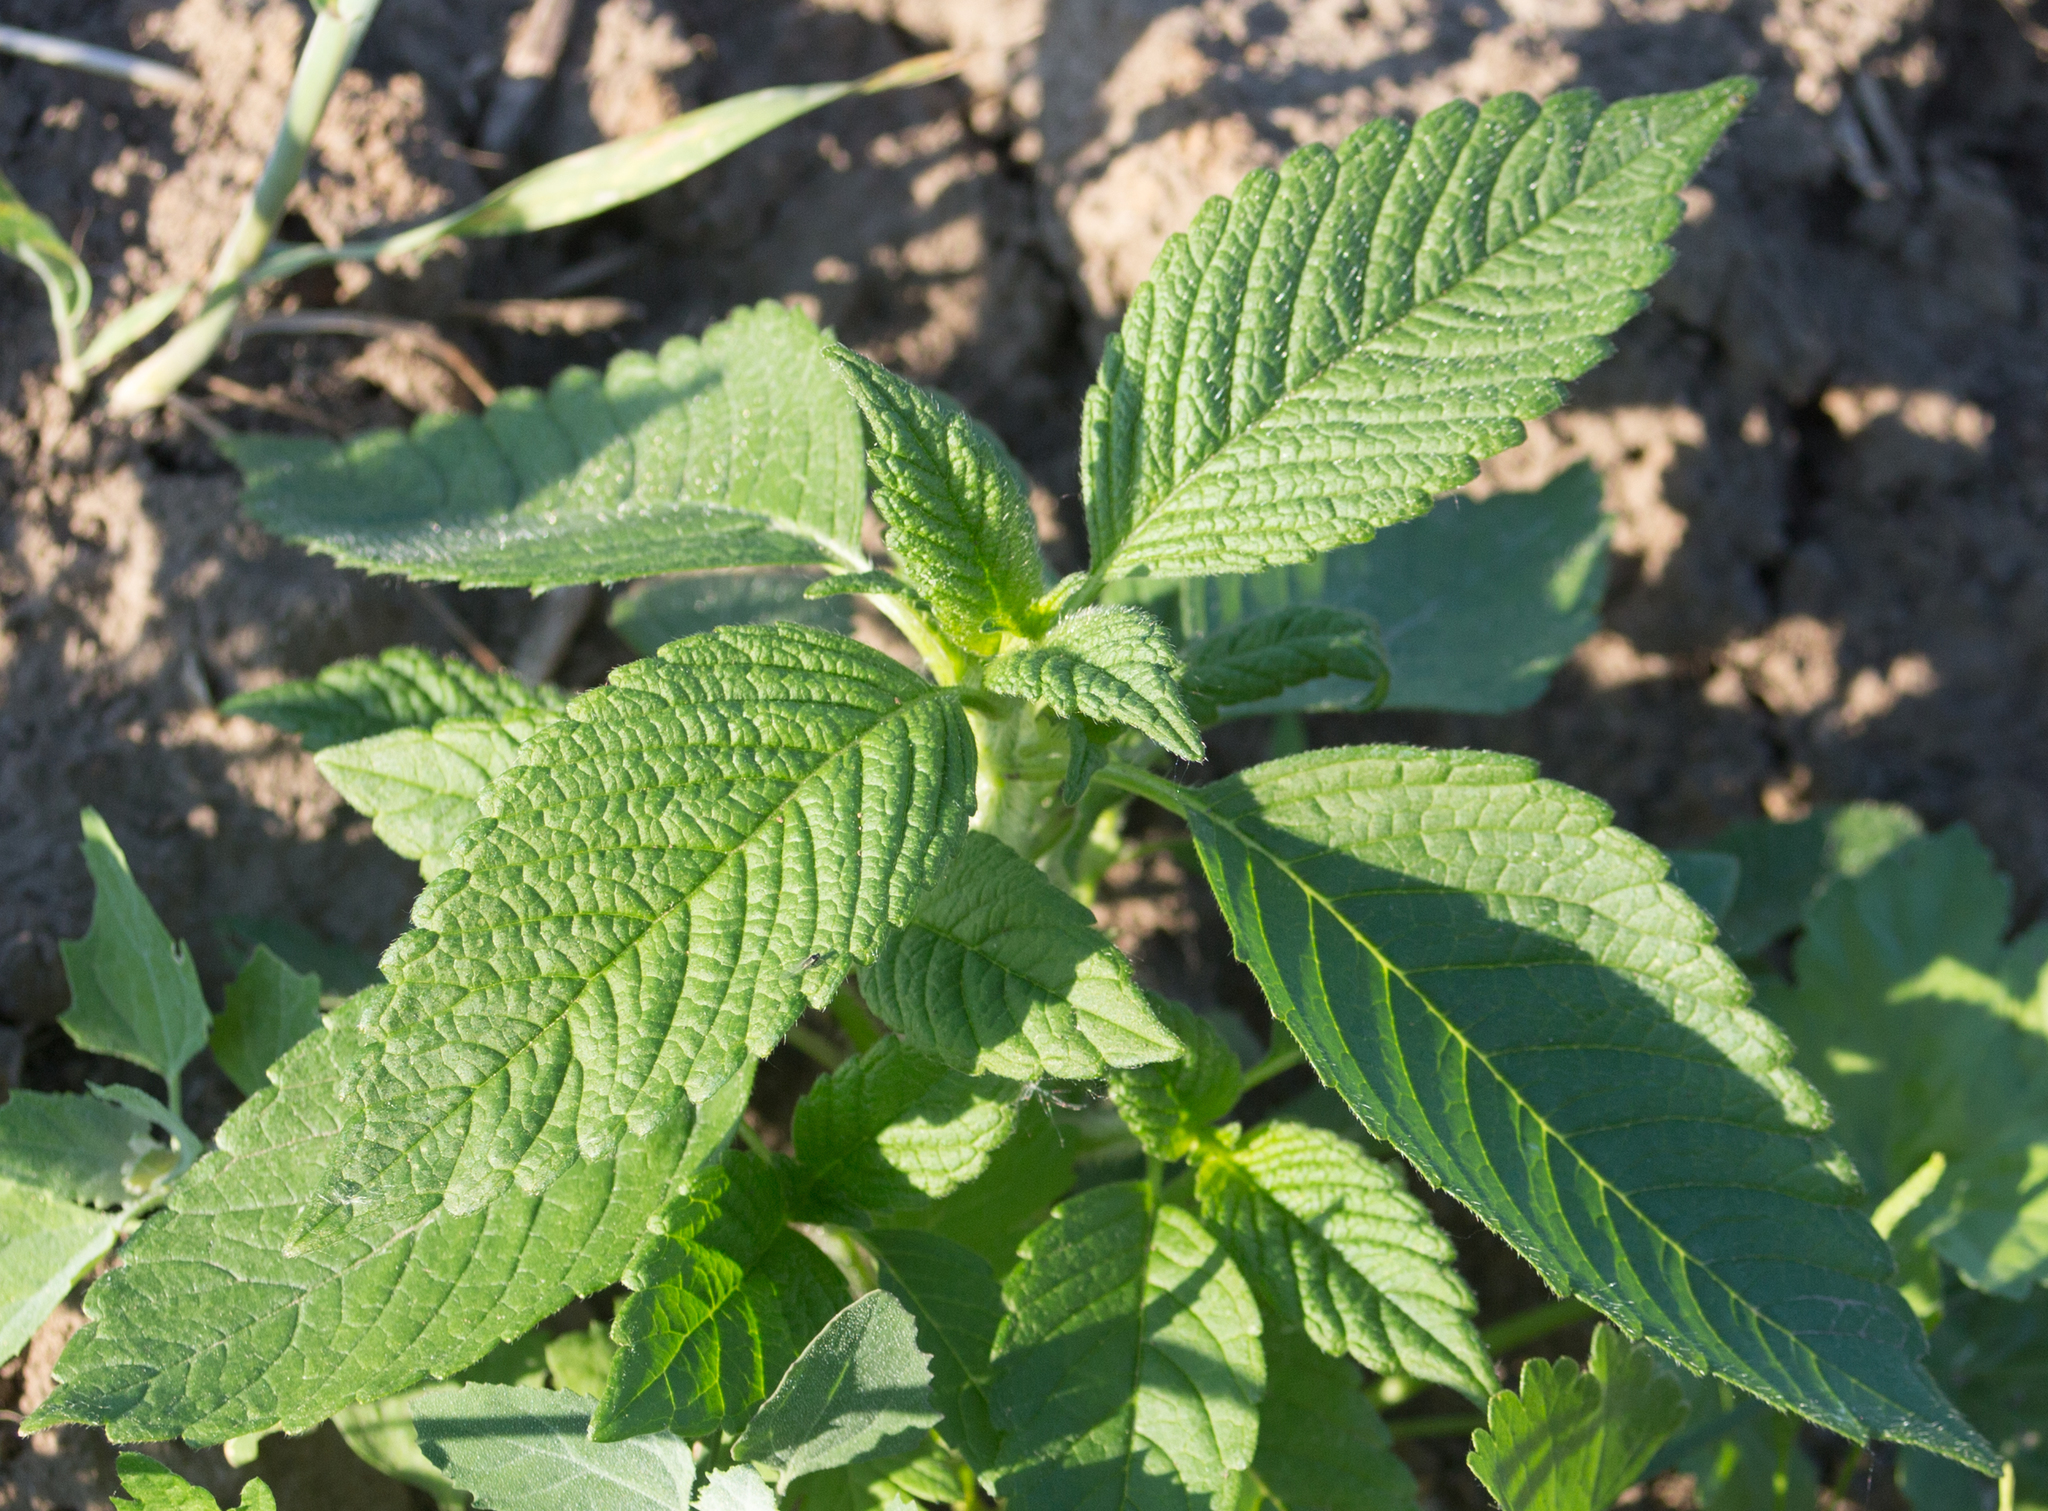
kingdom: Plantae
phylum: Tracheophyta
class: Magnoliopsida
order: Lamiales
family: Lamiaceae
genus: Galeopsis
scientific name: Galeopsis
